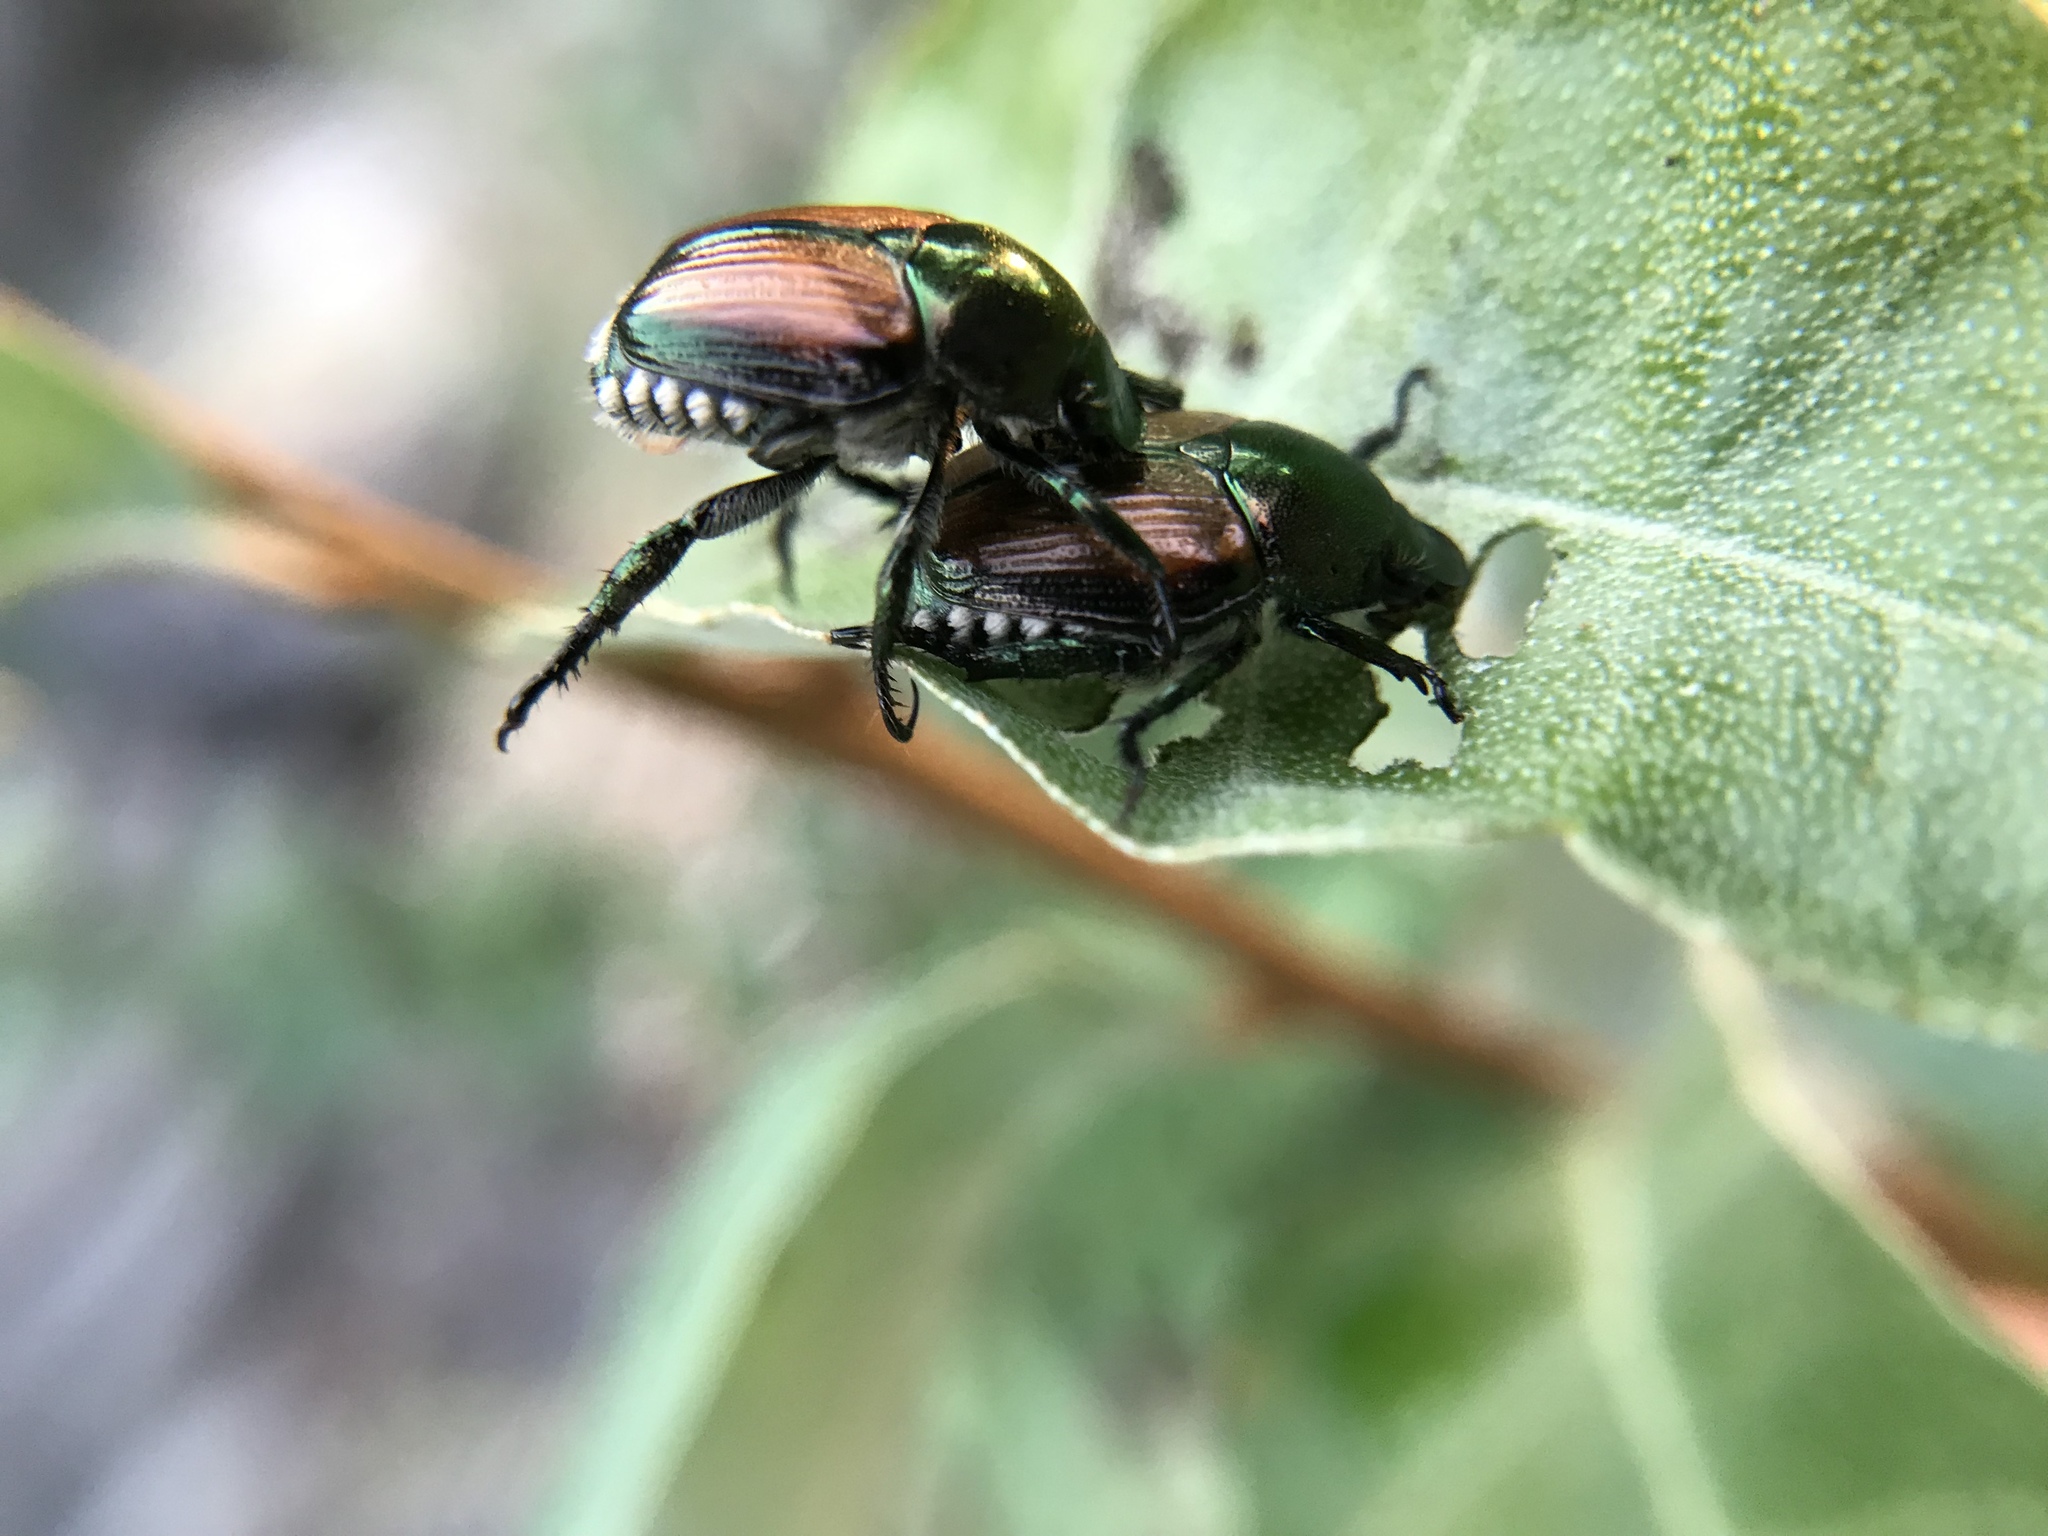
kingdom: Animalia
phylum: Arthropoda
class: Insecta
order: Coleoptera
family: Scarabaeidae
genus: Popillia
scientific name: Popillia japonica
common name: Japanese beetle
